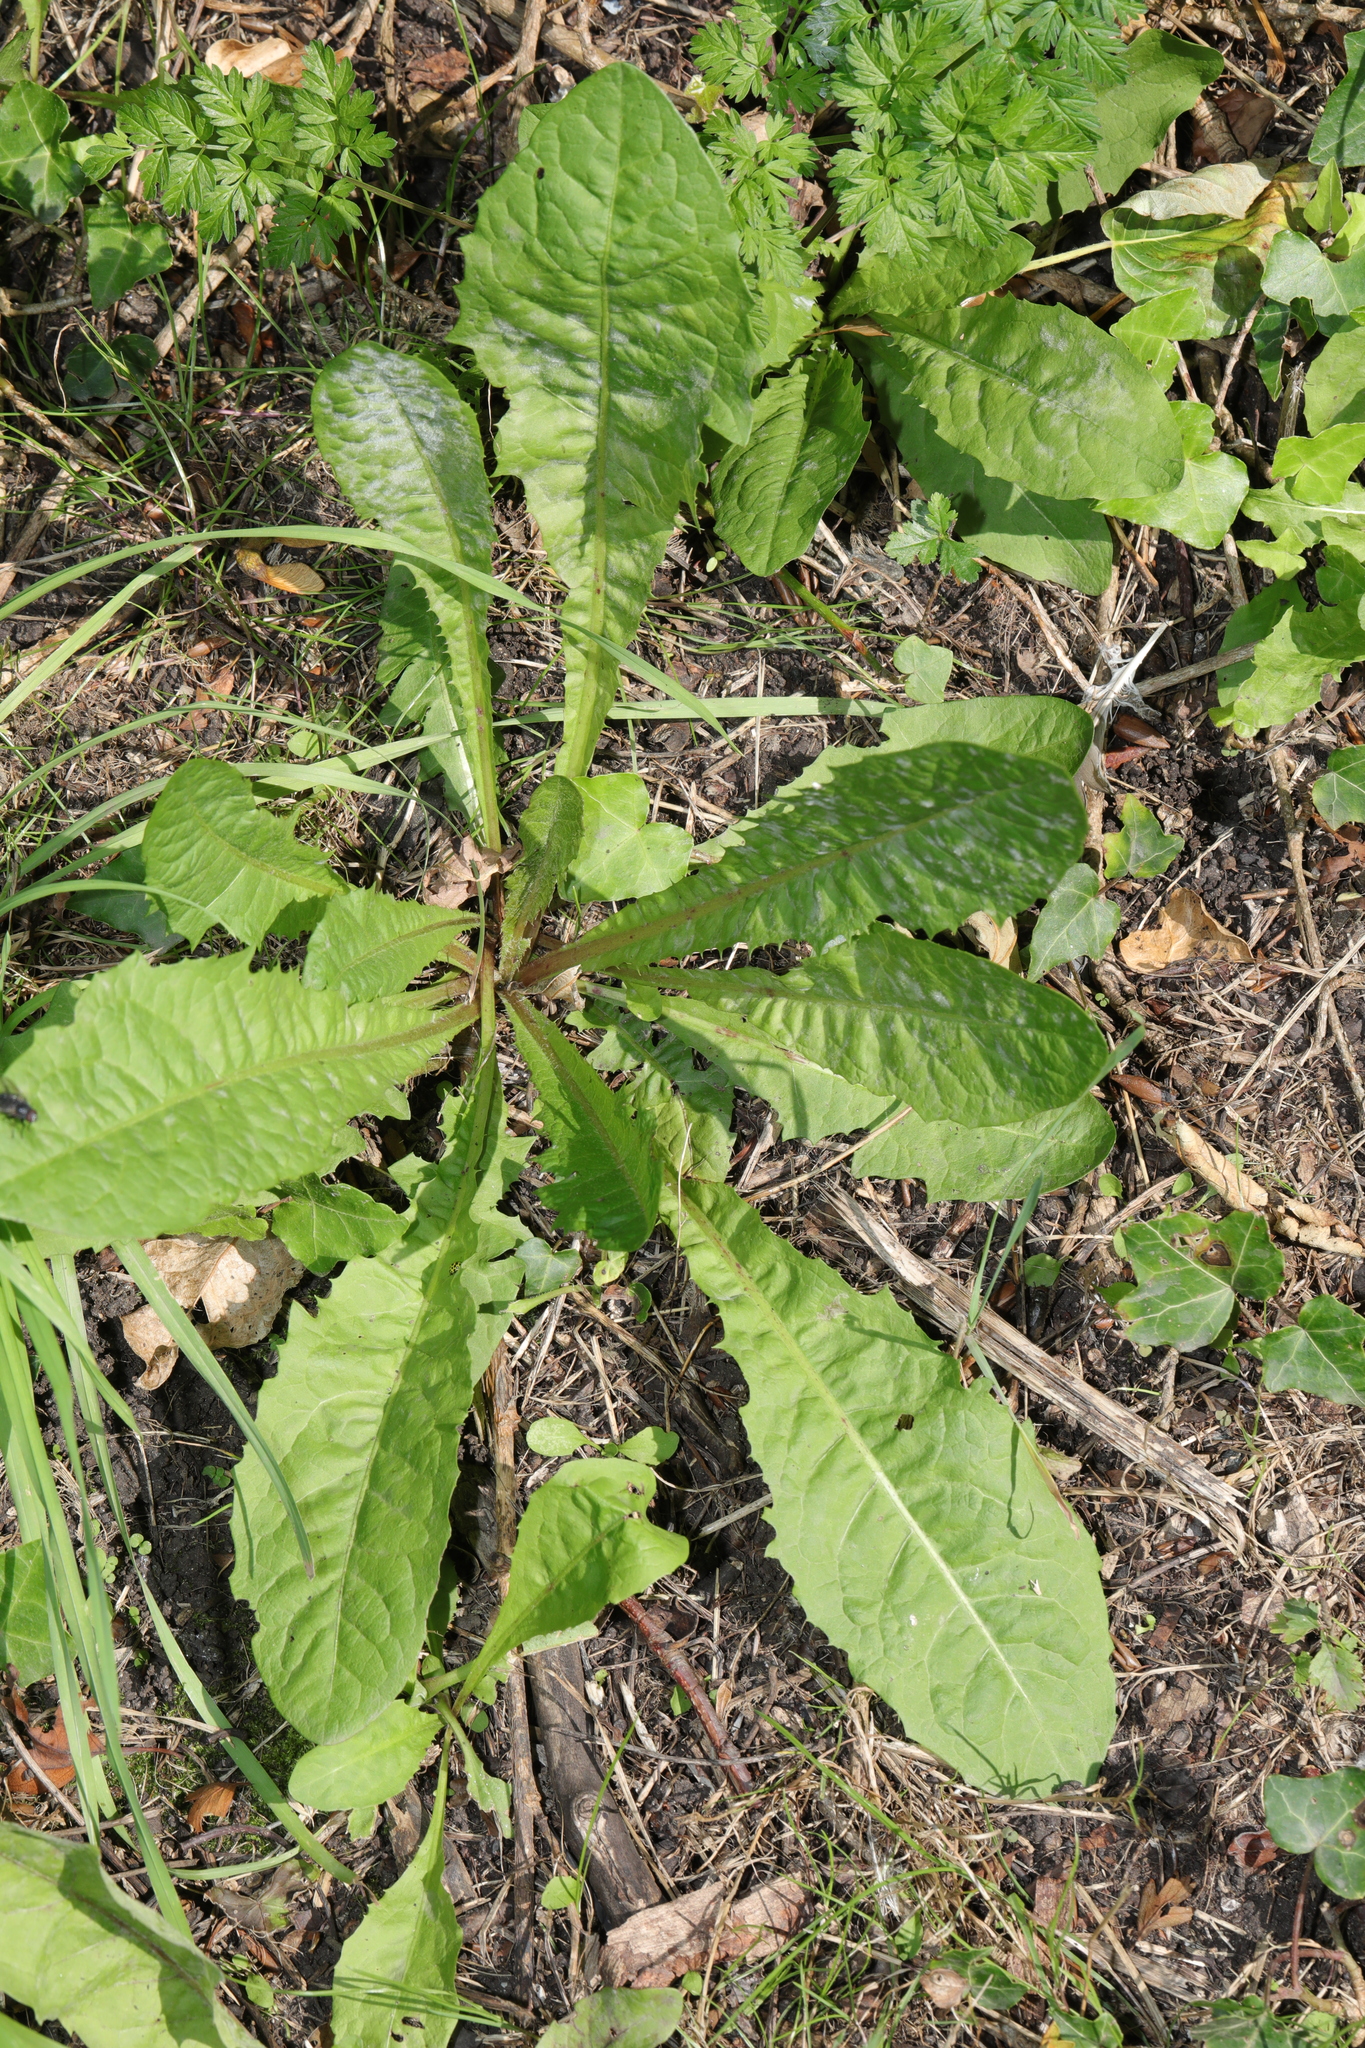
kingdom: Plantae
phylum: Tracheophyta
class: Magnoliopsida
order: Asterales
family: Asteraceae
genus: Taraxacum
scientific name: Taraxacum officinale
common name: Common dandelion
